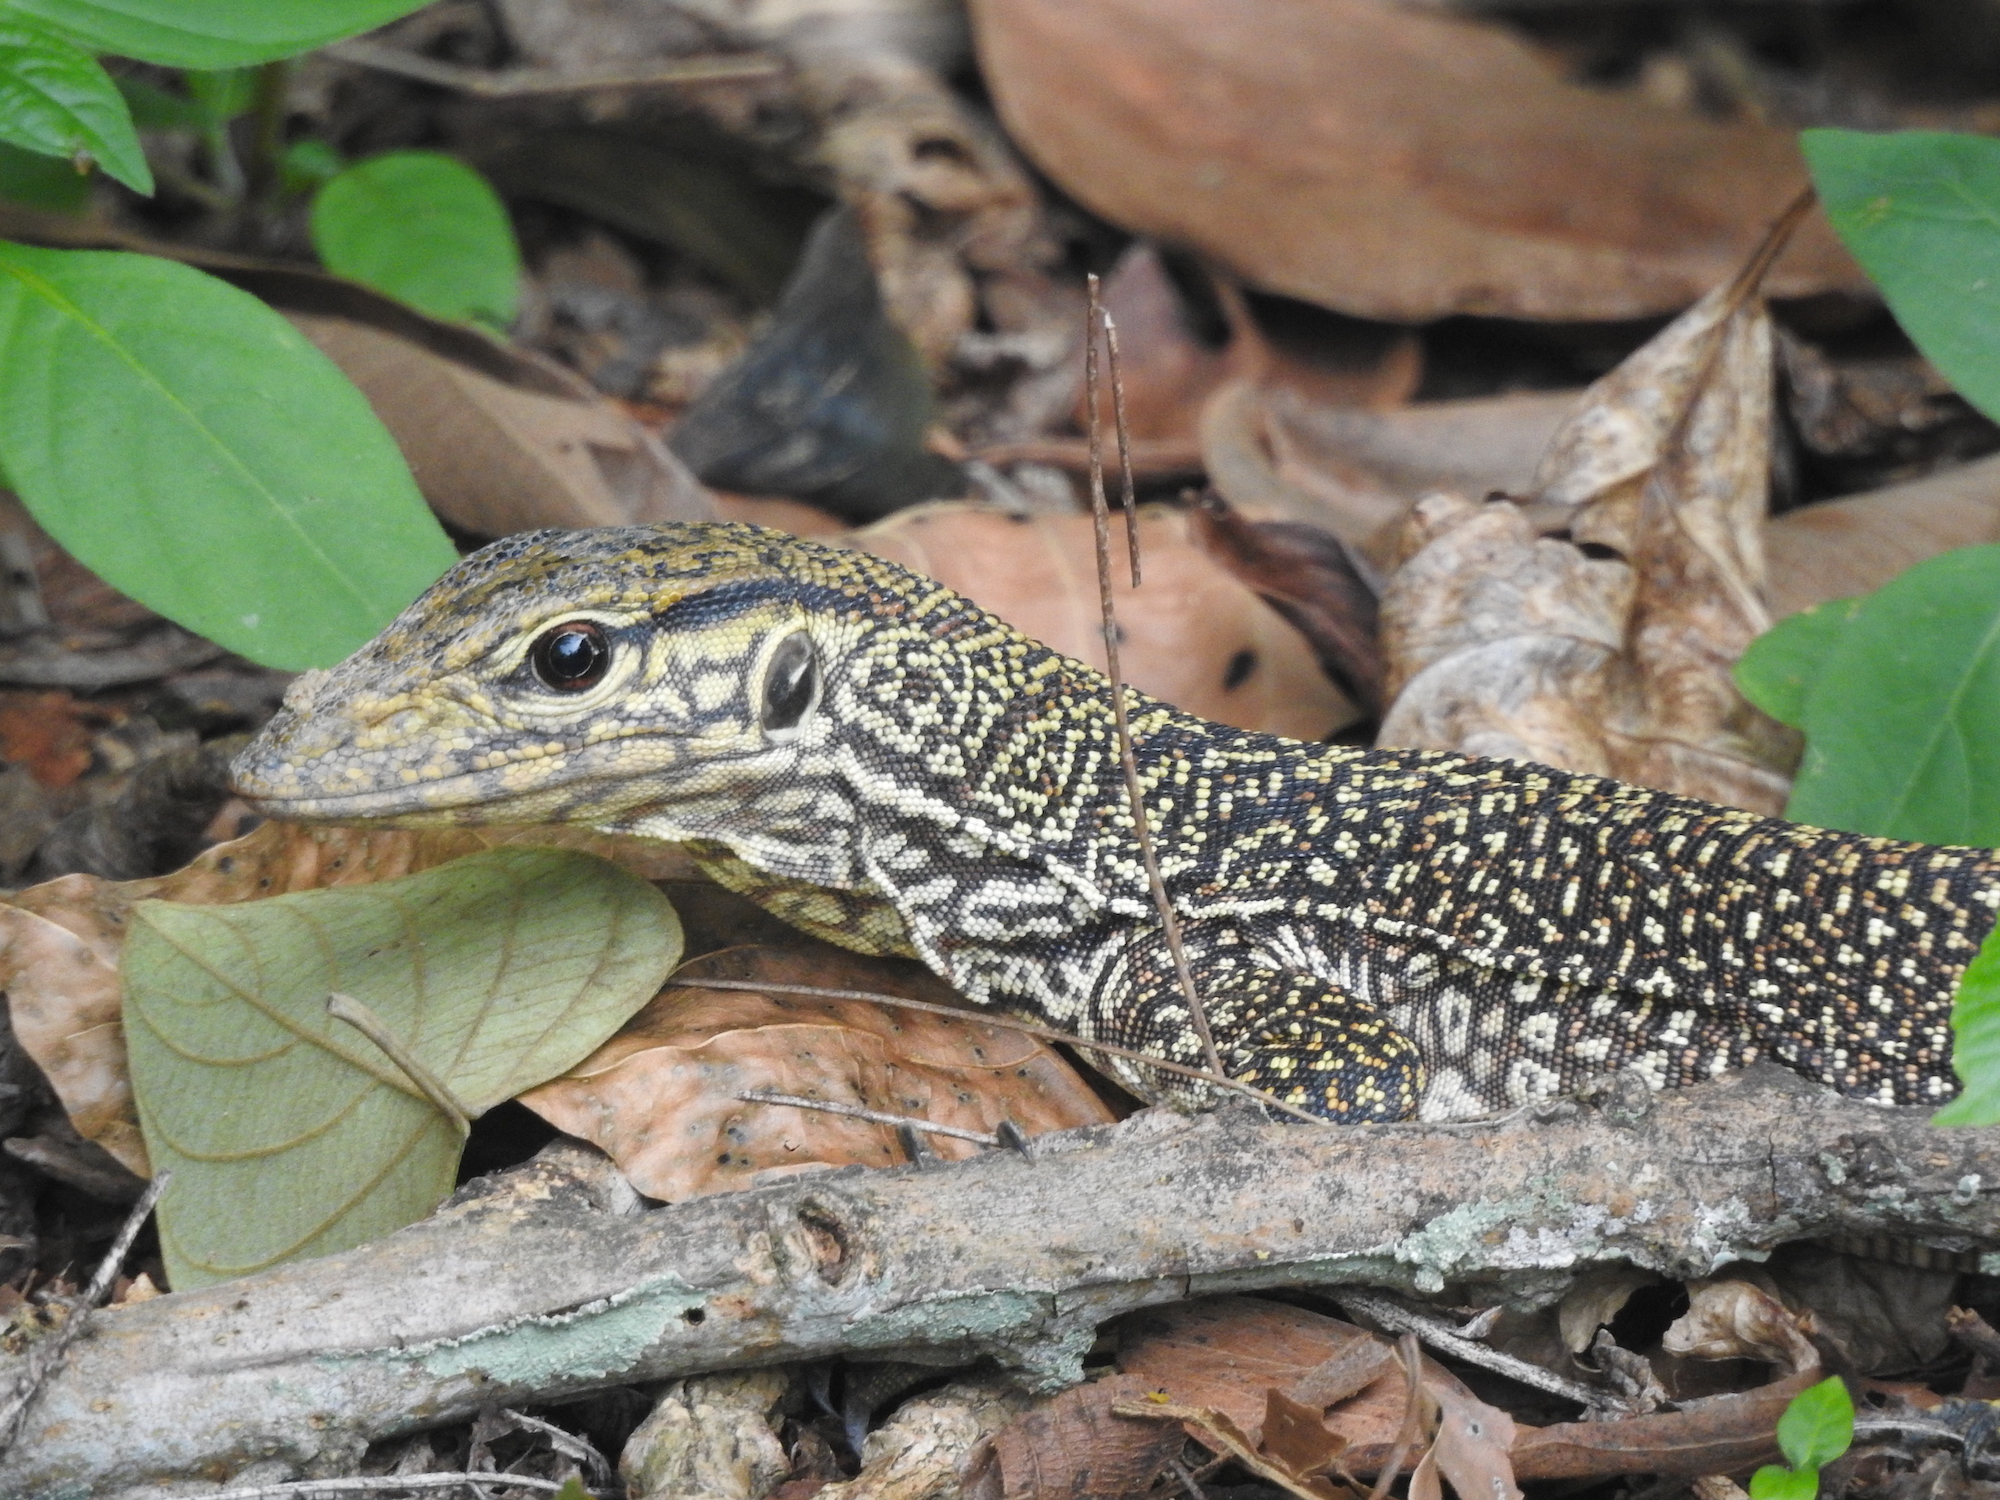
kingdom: Animalia
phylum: Chordata
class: Squamata
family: Varanidae
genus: Varanus
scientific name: Varanus nebulosus
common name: Clouded monitor
